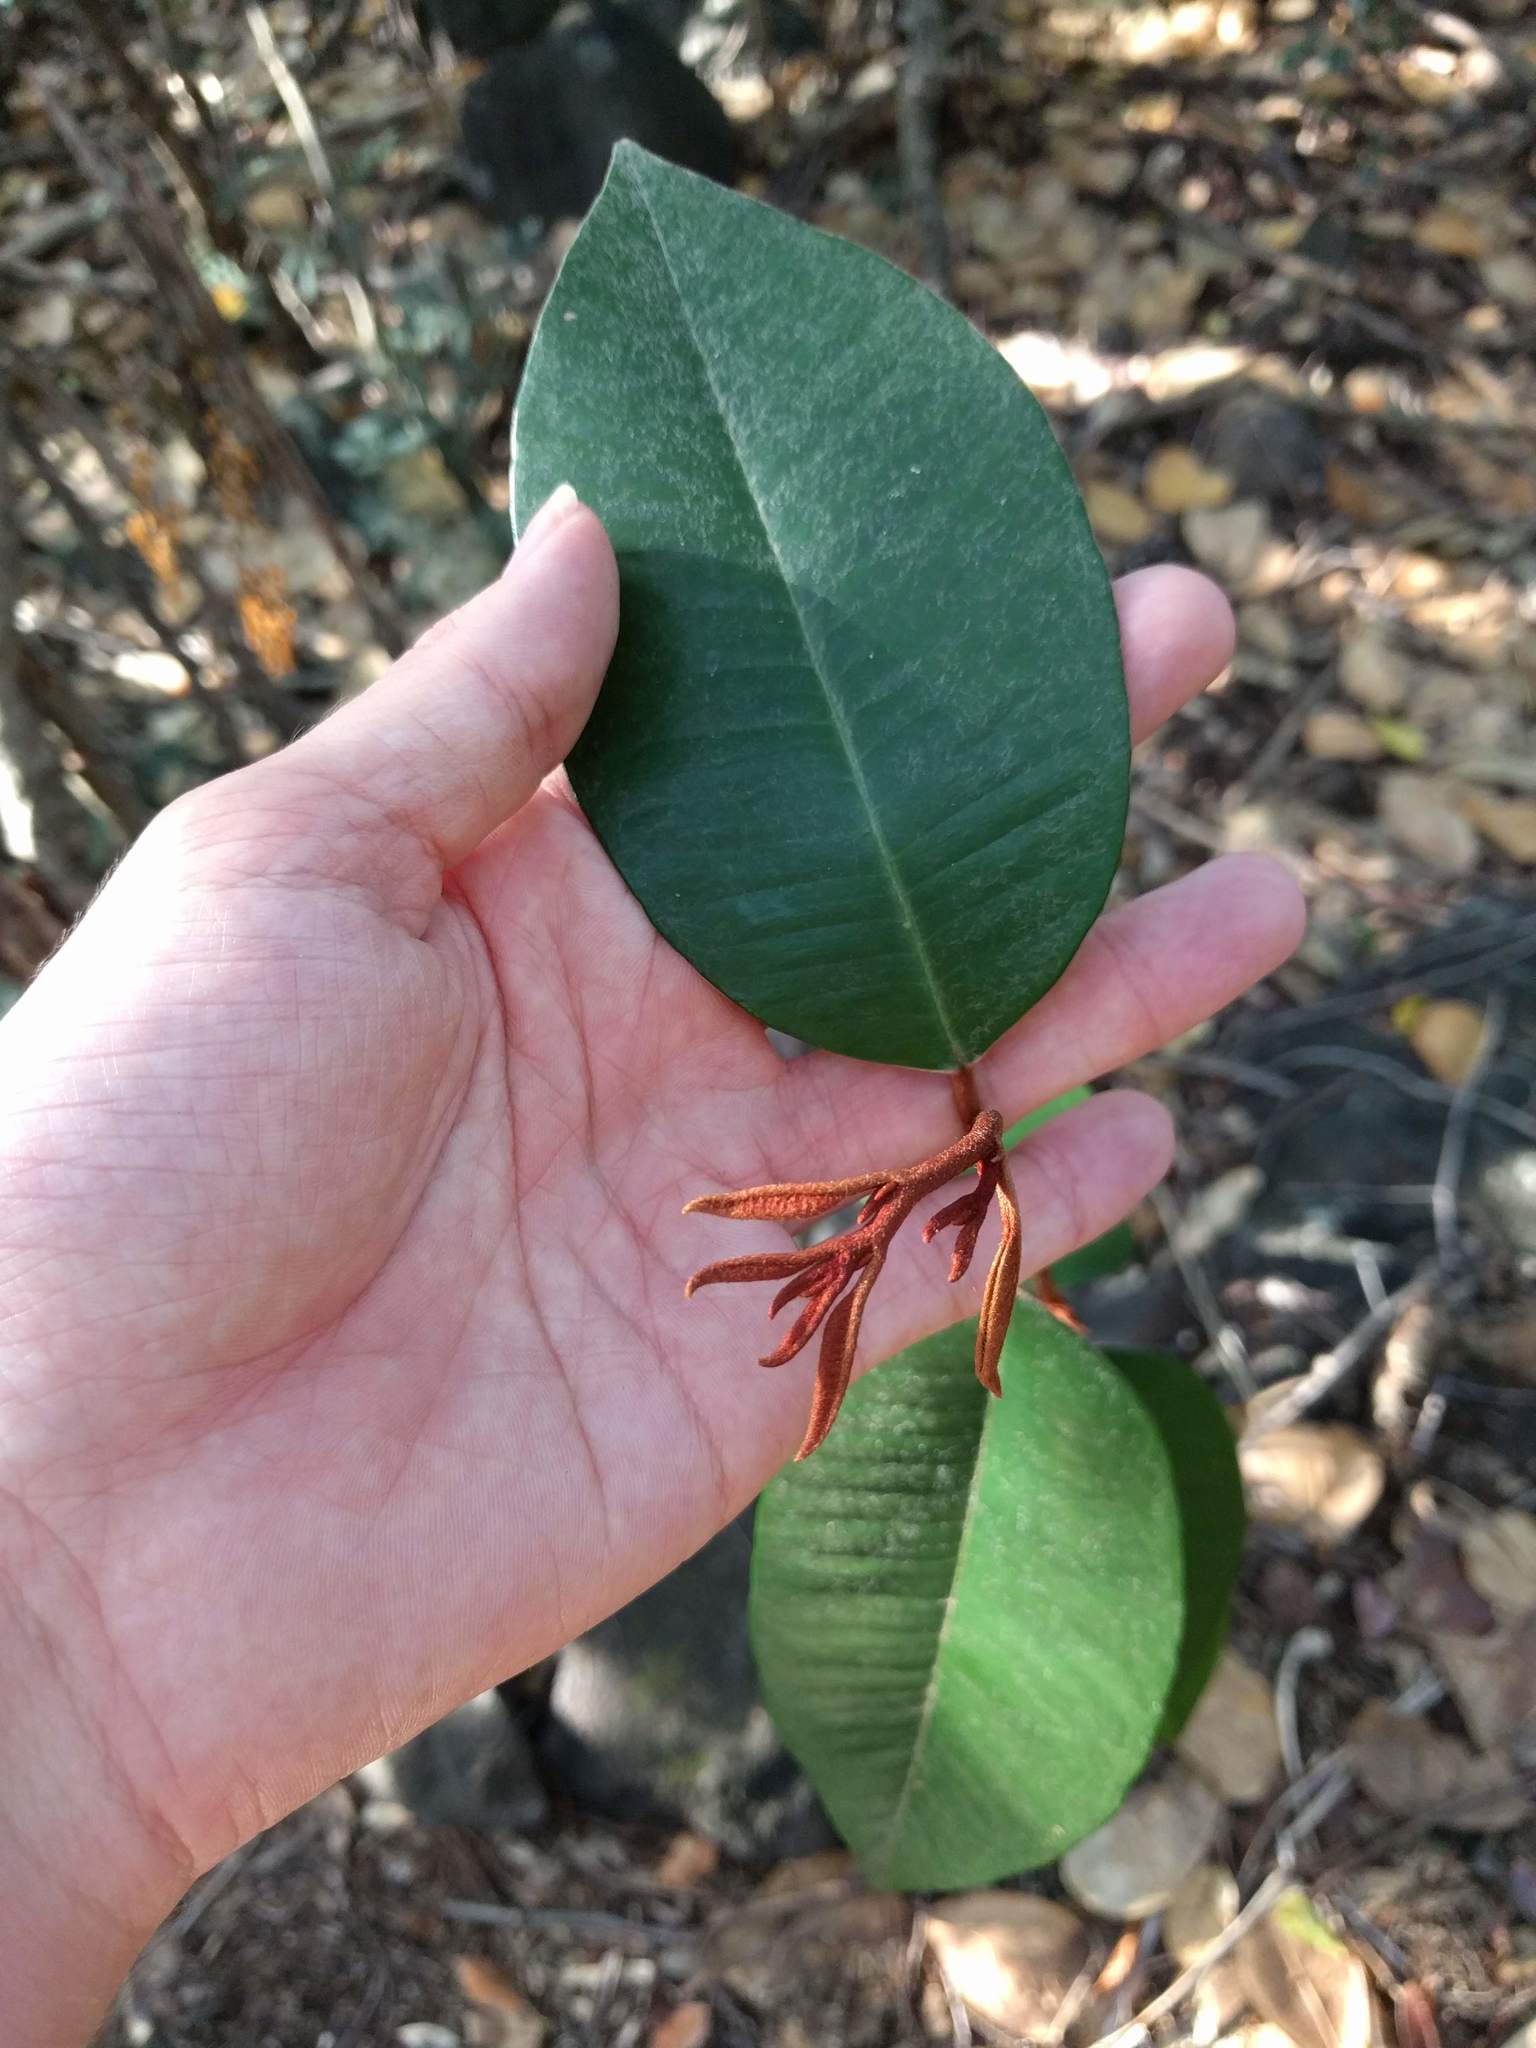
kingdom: Plantae
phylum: Tracheophyta
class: Magnoliopsida
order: Ericales
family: Sapotaceae
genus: Chrysophyllum
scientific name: Chrysophyllum oliviforme
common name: Satinleaf
